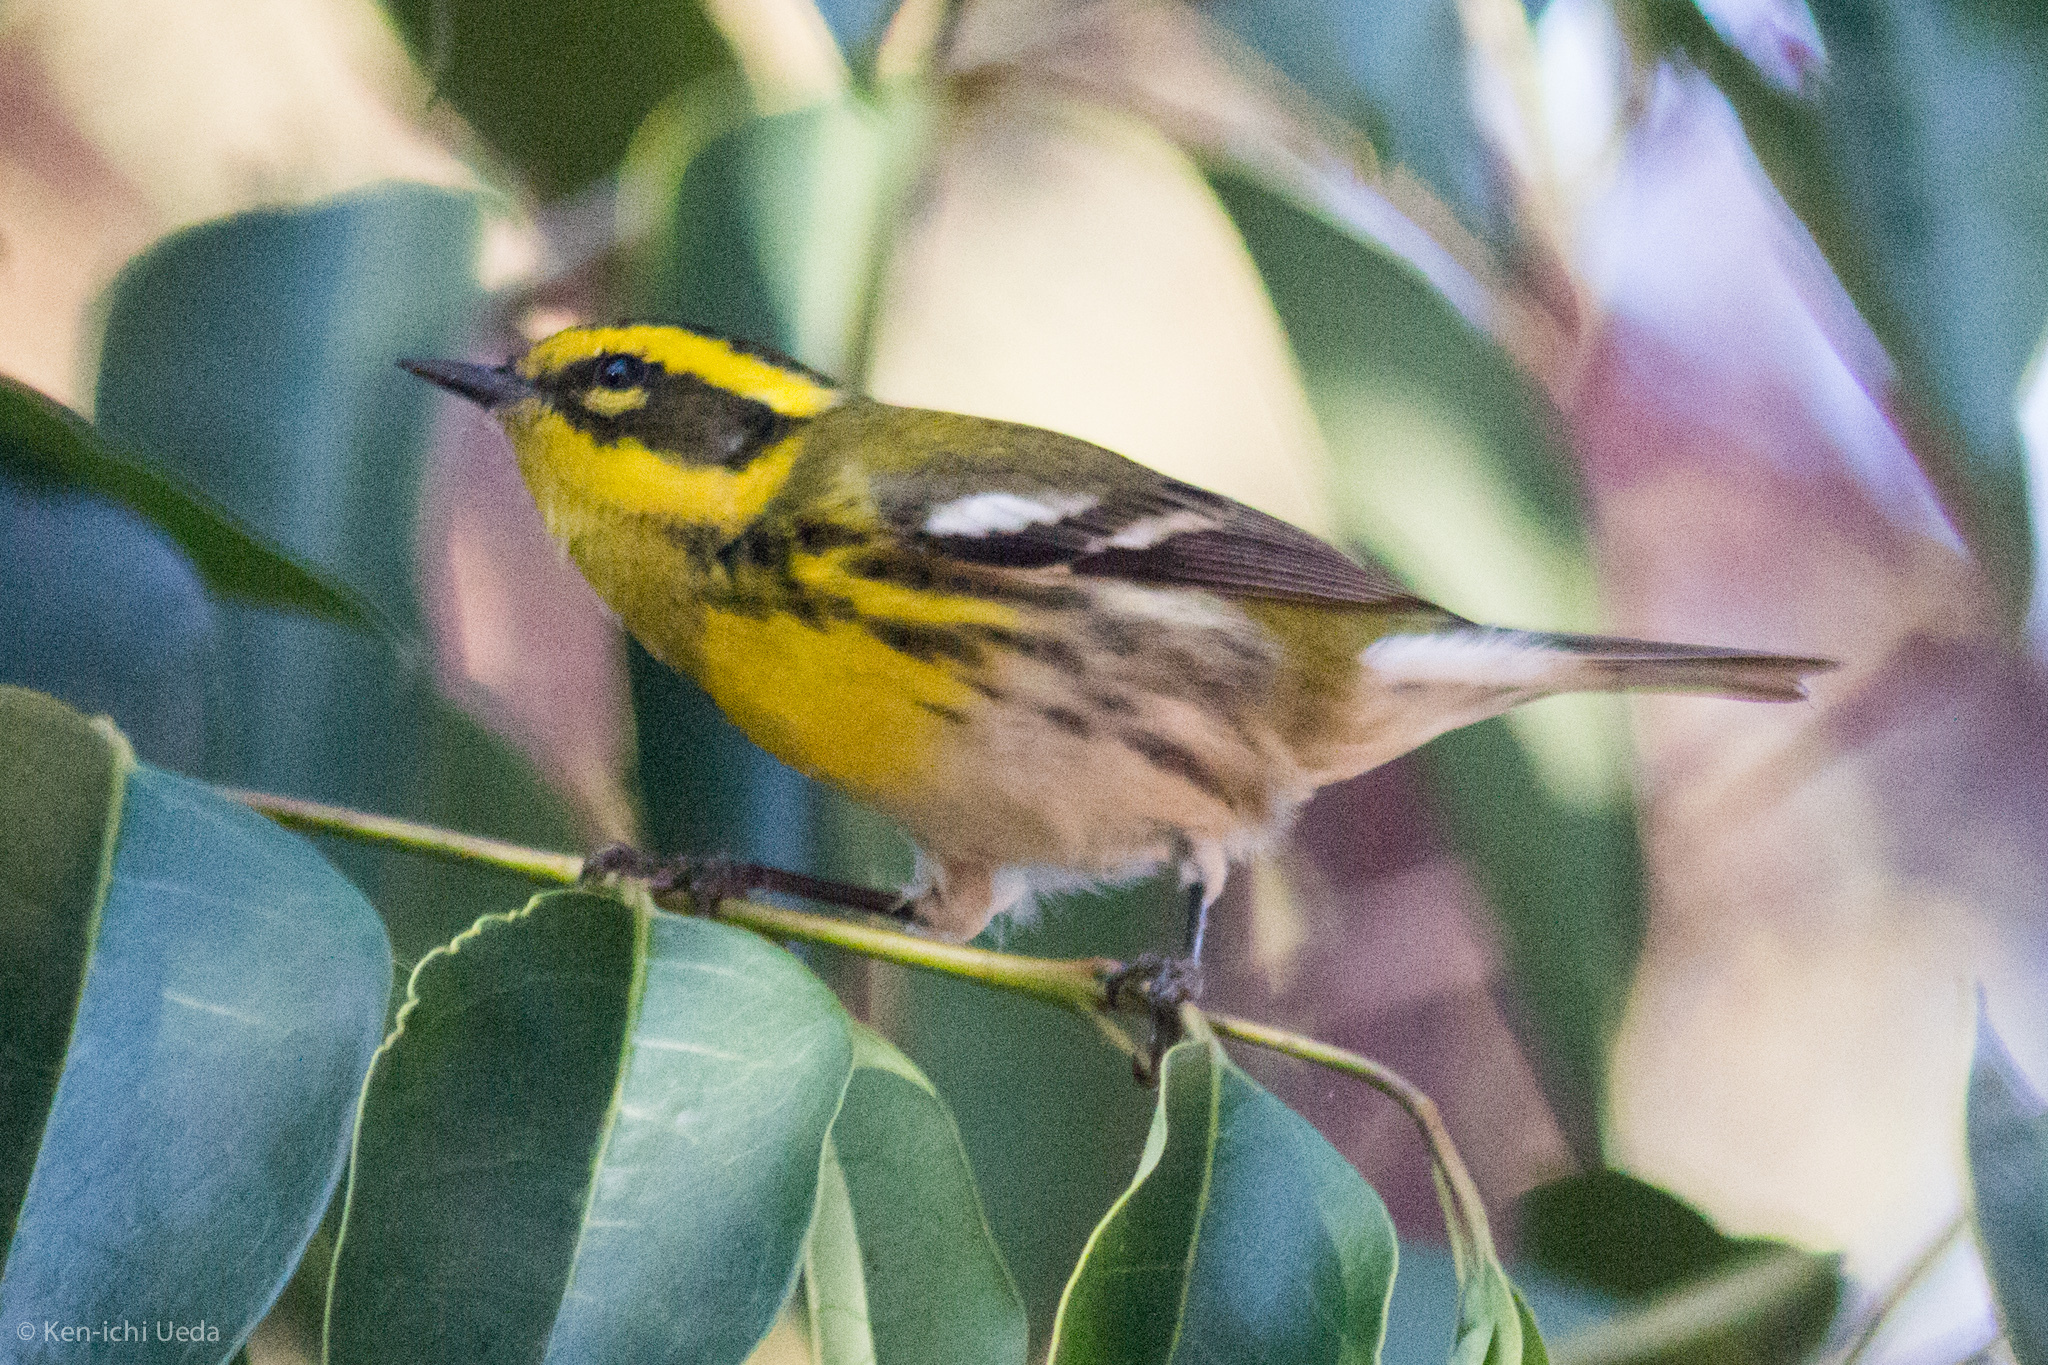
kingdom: Animalia
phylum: Chordata
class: Aves
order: Passeriformes
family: Parulidae
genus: Setophaga
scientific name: Setophaga townsendi
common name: Townsend's warbler
